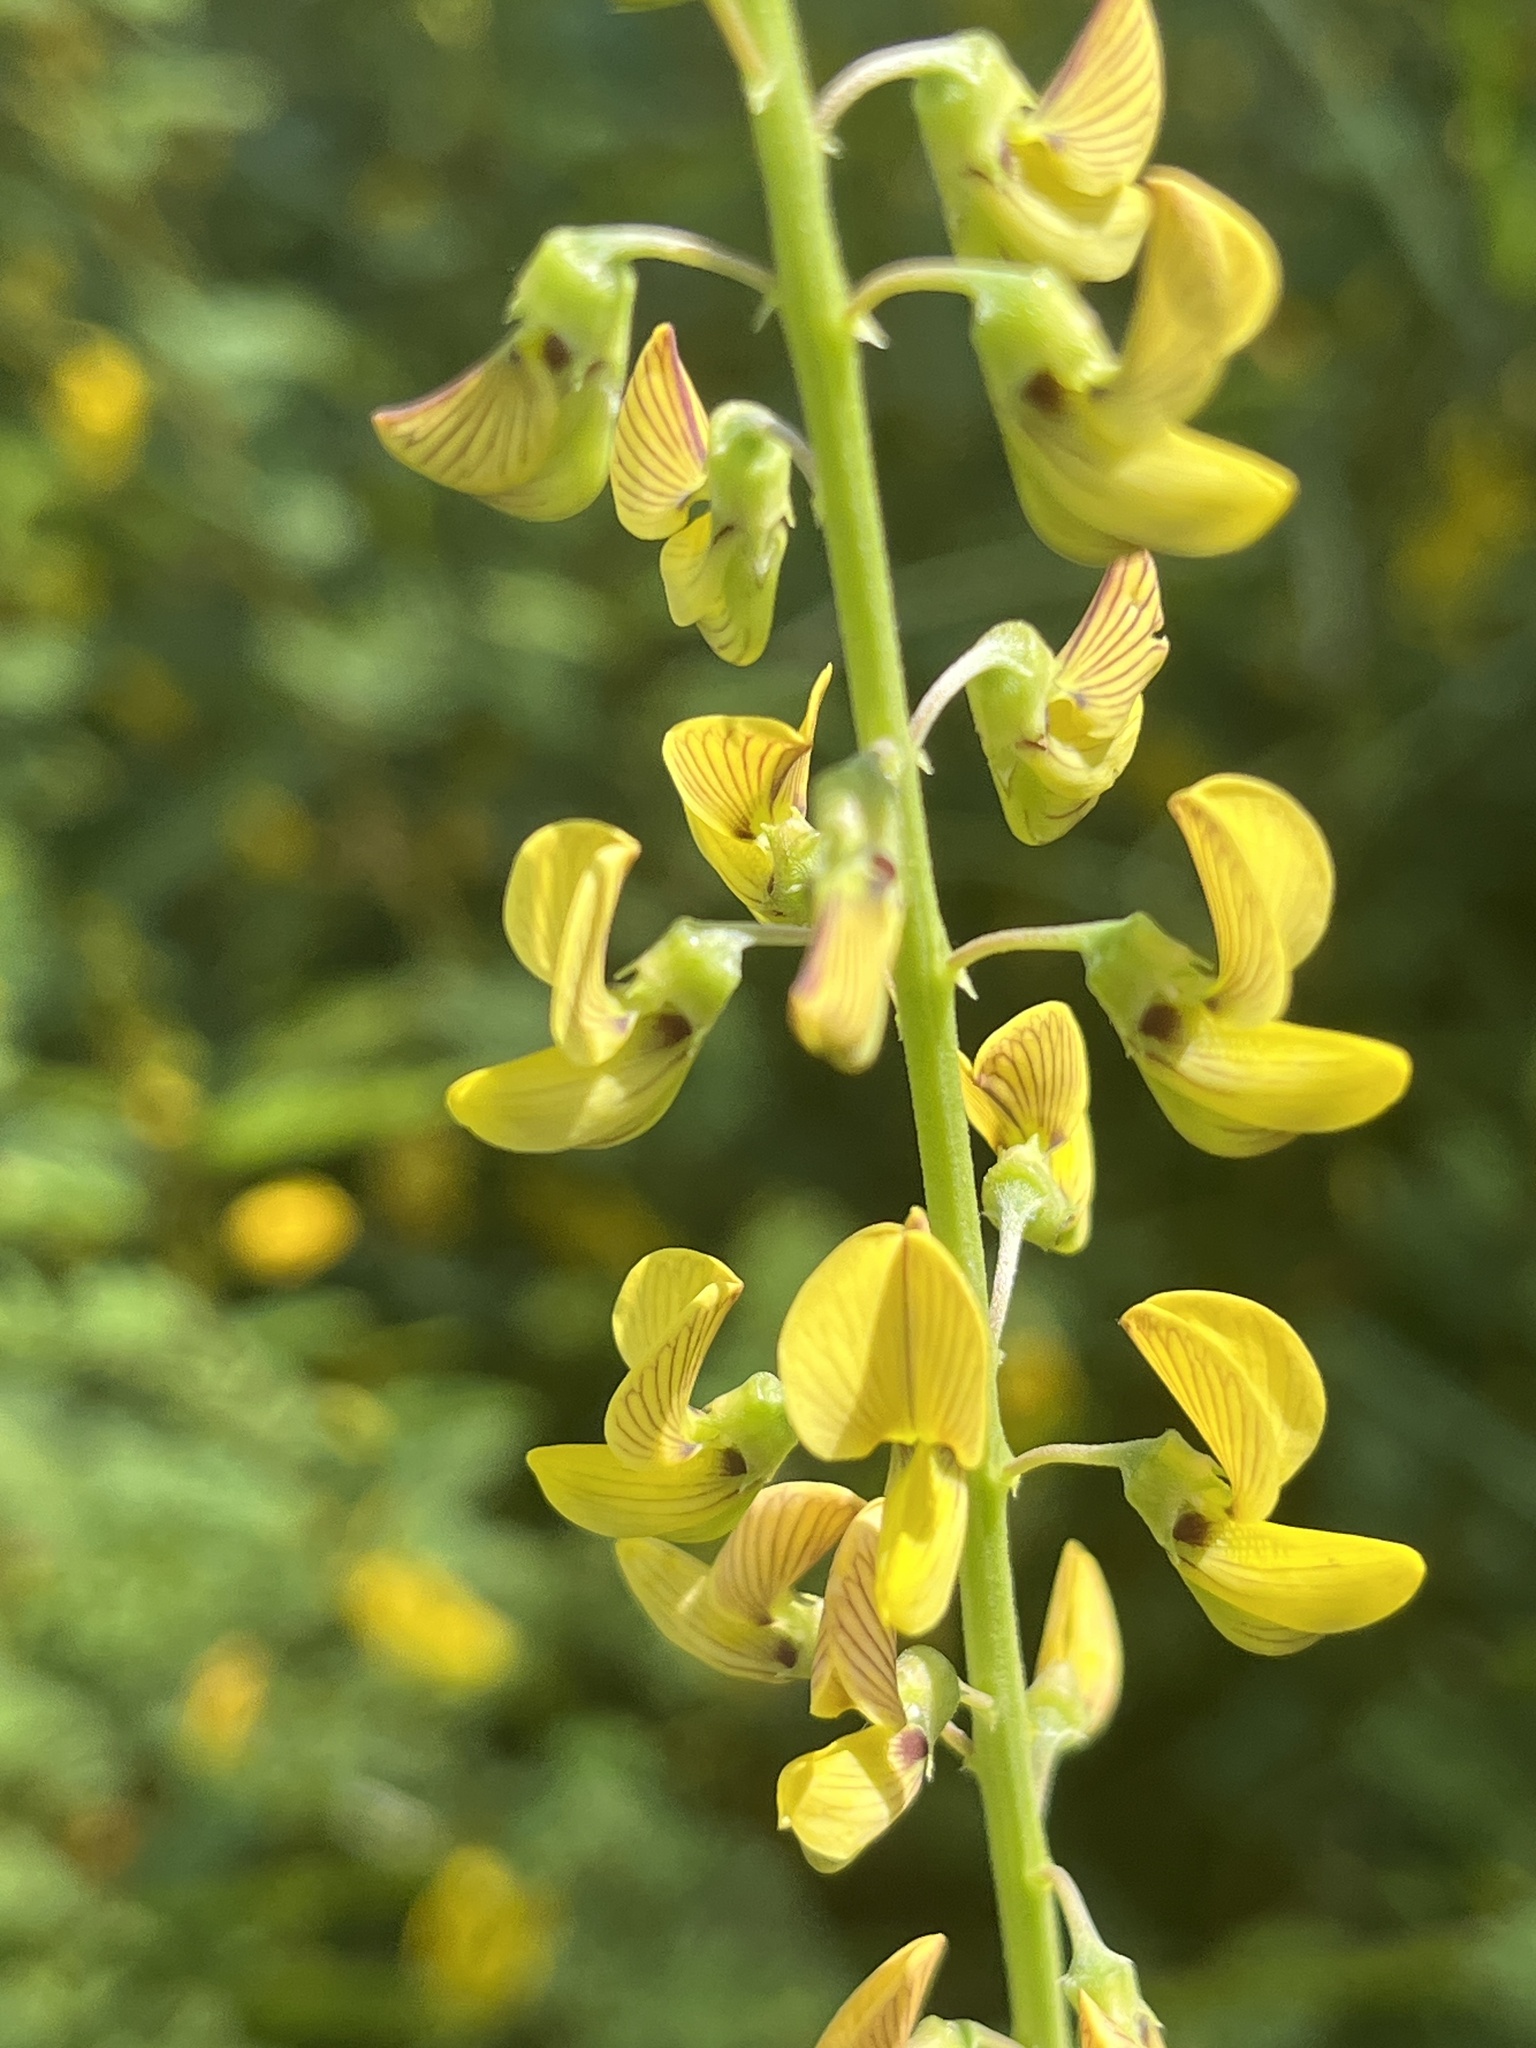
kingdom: Plantae
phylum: Tracheophyta
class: Magnoliopsida
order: Fabales
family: Fabaceae
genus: Crotalaria
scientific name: Crotalaria lanceolata
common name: Lanceleaf rattlebox
